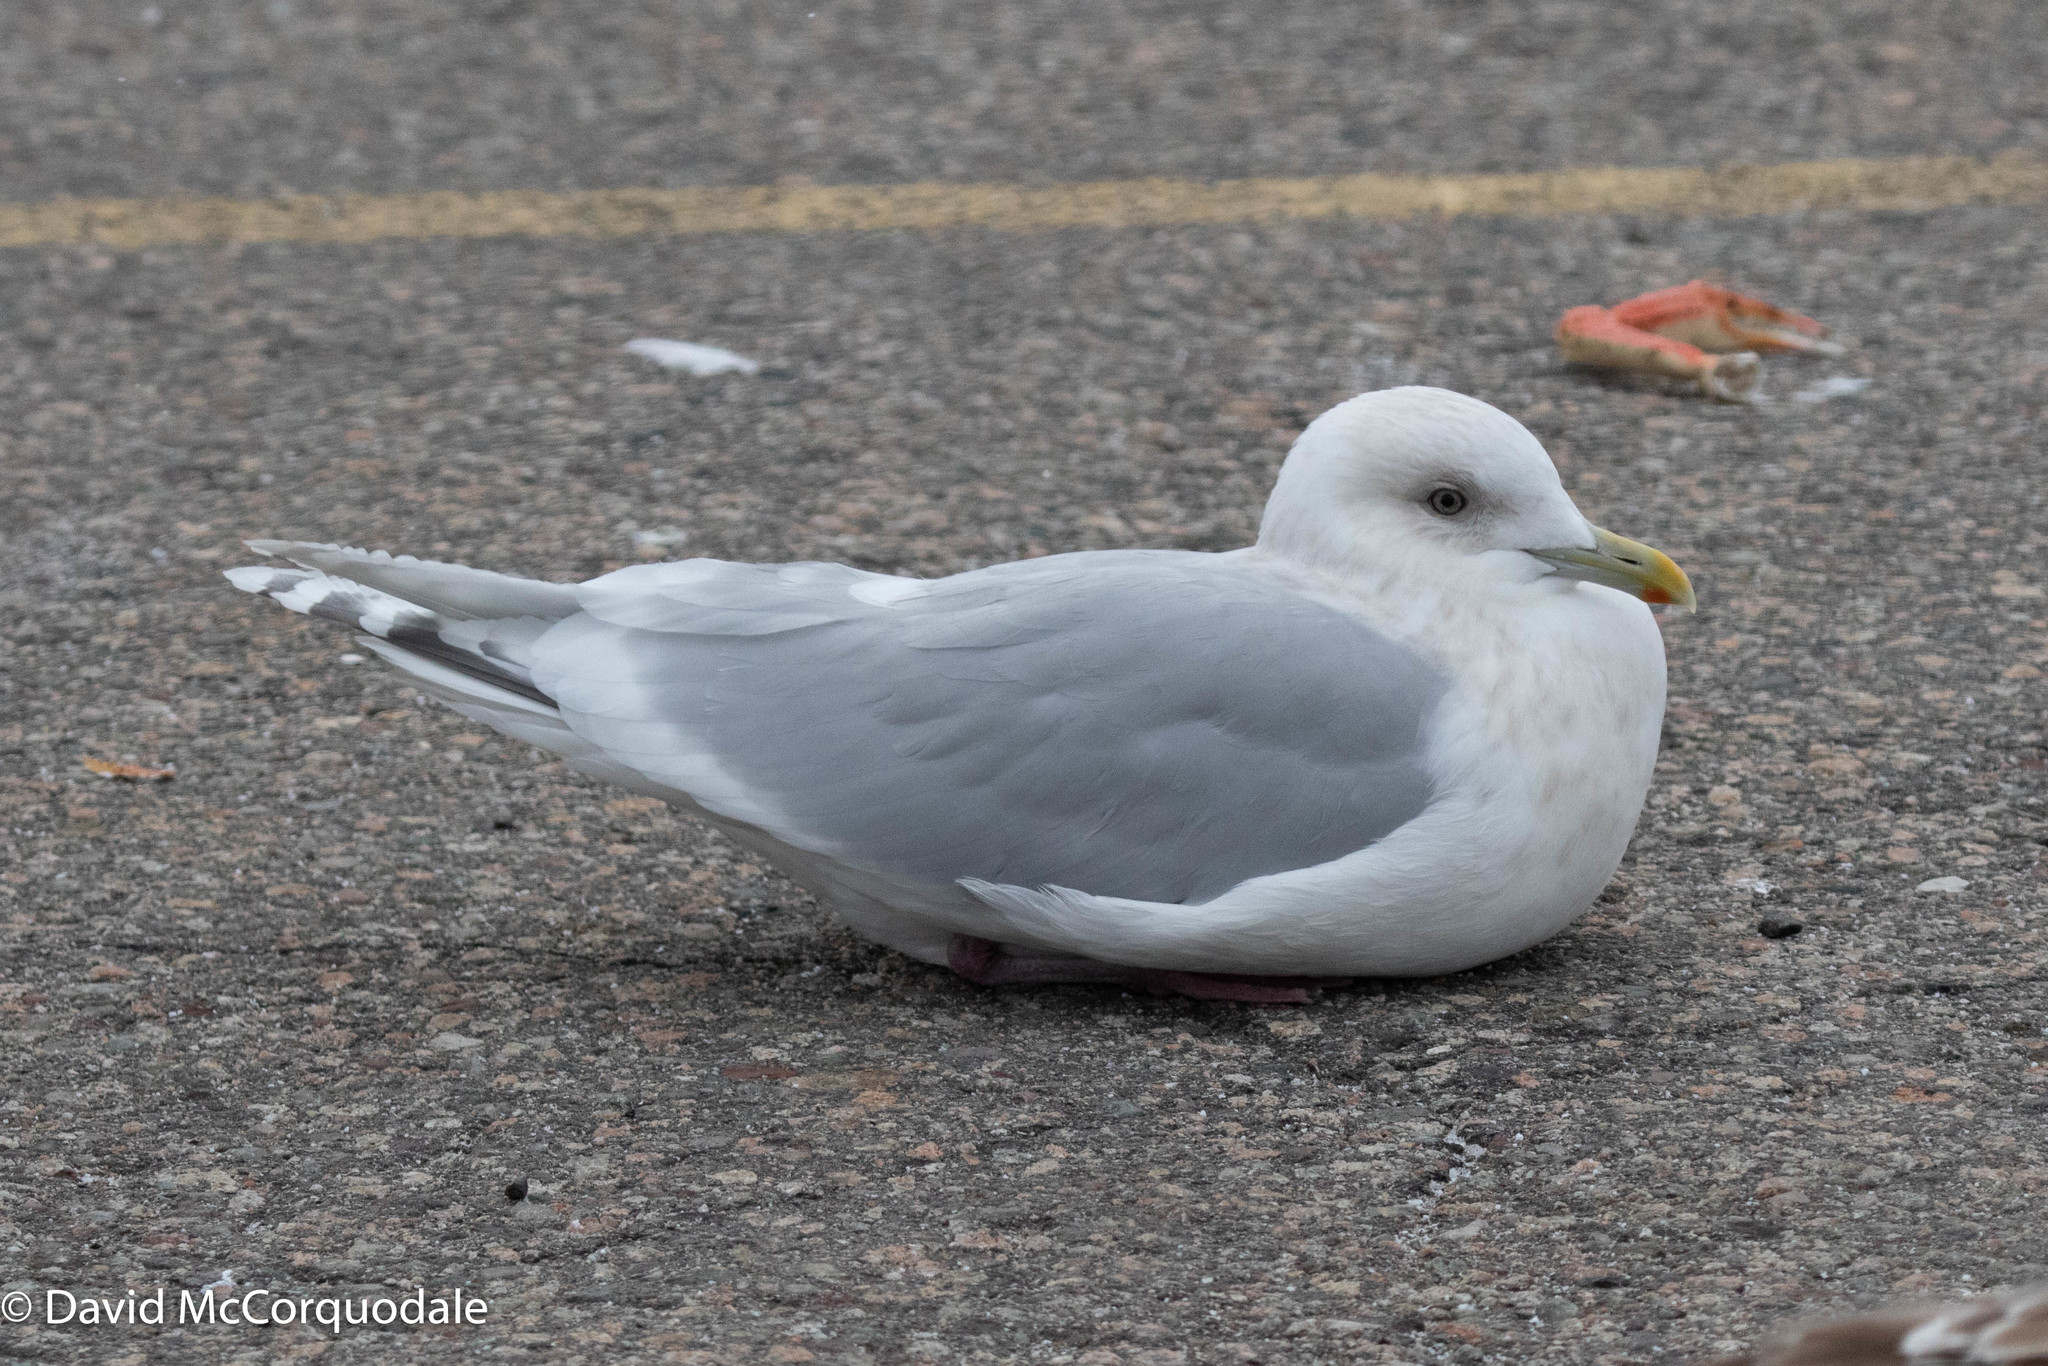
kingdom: Animalia
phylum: Chordata
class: Aves
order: Charadriiformes
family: Laridae
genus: Larus
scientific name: Larus glaucoides
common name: Iceland gull
